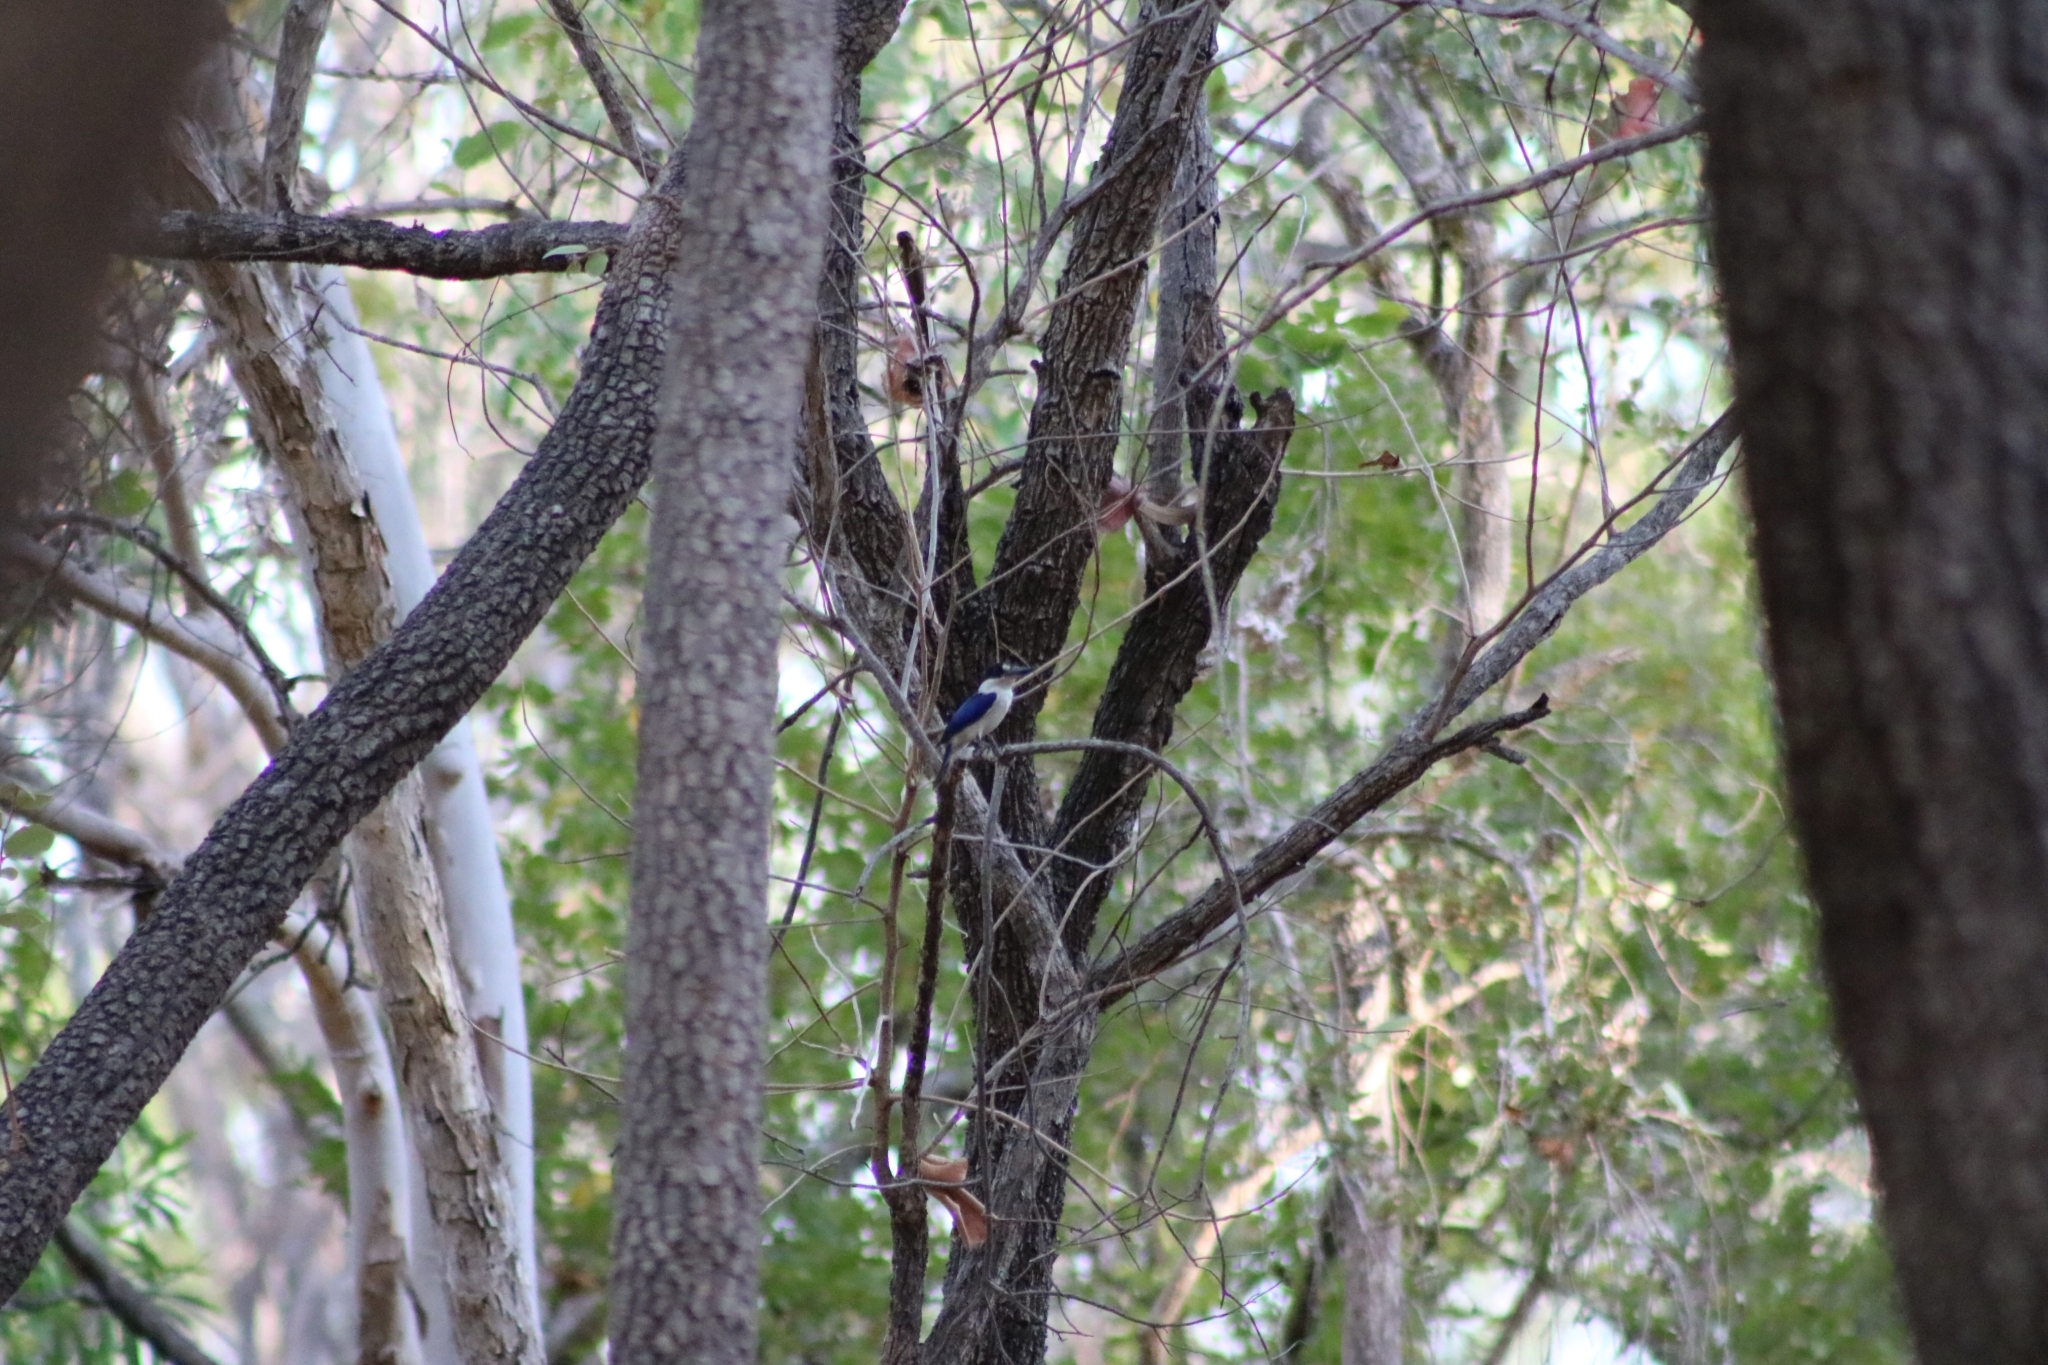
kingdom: Animalia
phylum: Chordata
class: Aves
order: Coraciiformes
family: Alcedinidae
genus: Todiramphus
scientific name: Todiramphus macleayii
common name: Forest kingfisher
